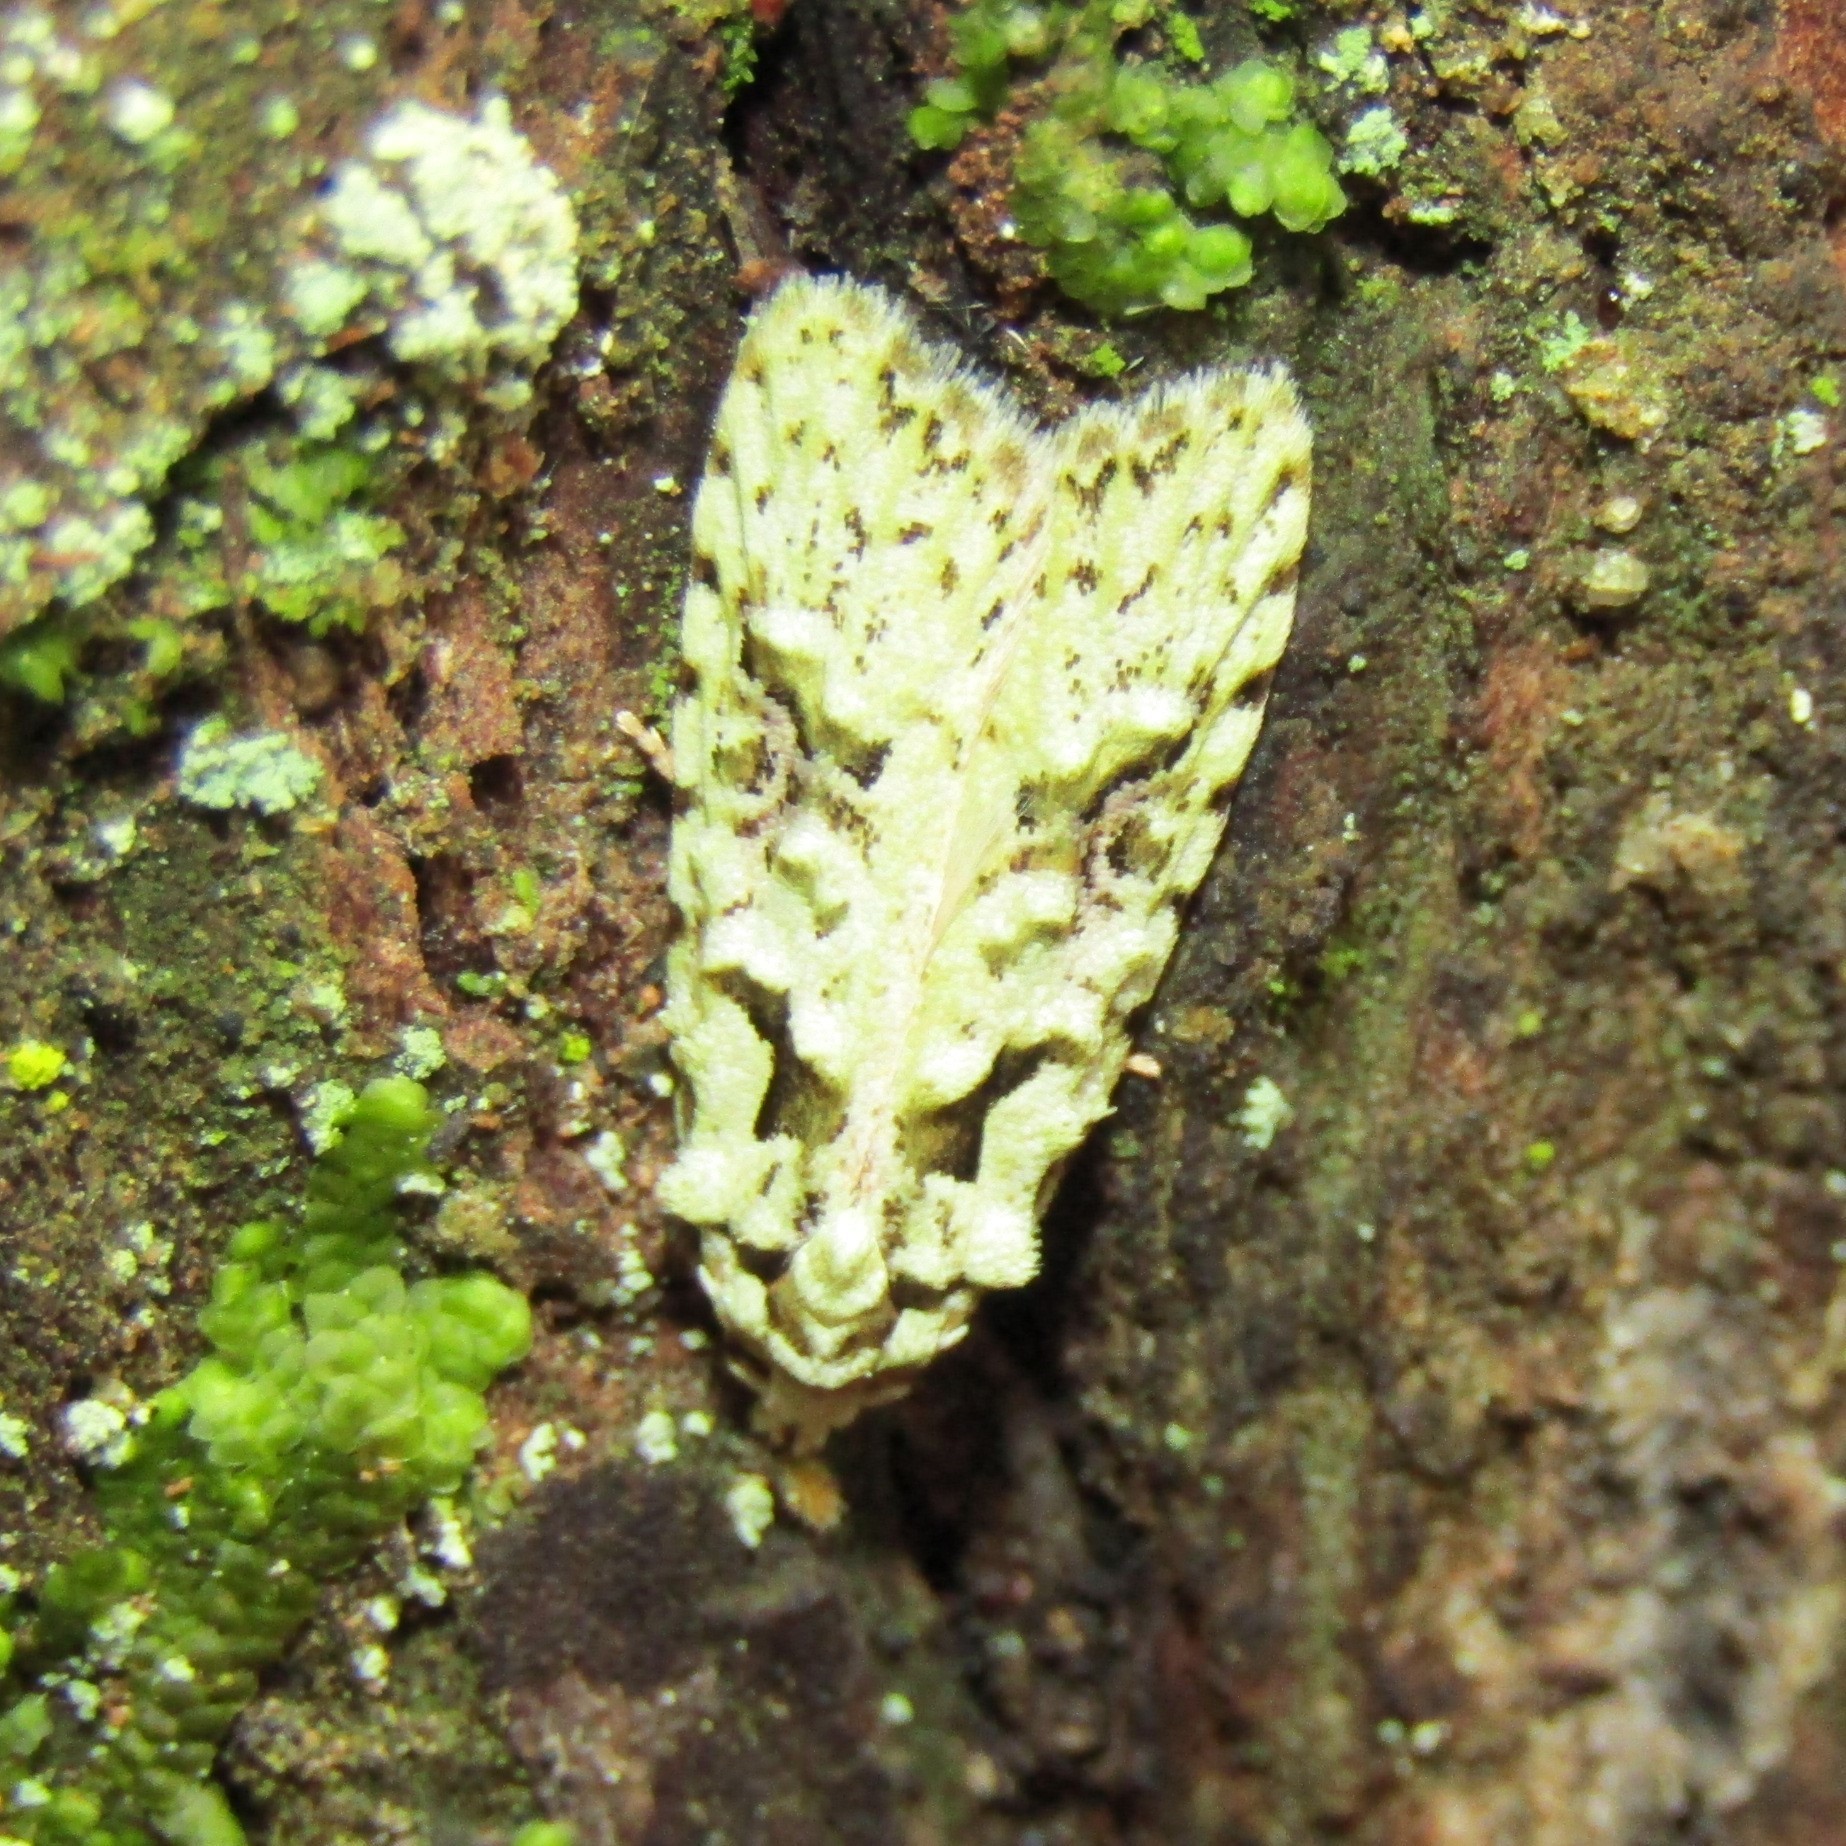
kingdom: Animalia
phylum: Arthropoda
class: Insecta
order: Lepidoptera
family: Carposinidae
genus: Carposina
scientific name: Carposina Heterocrossa eriphylla
